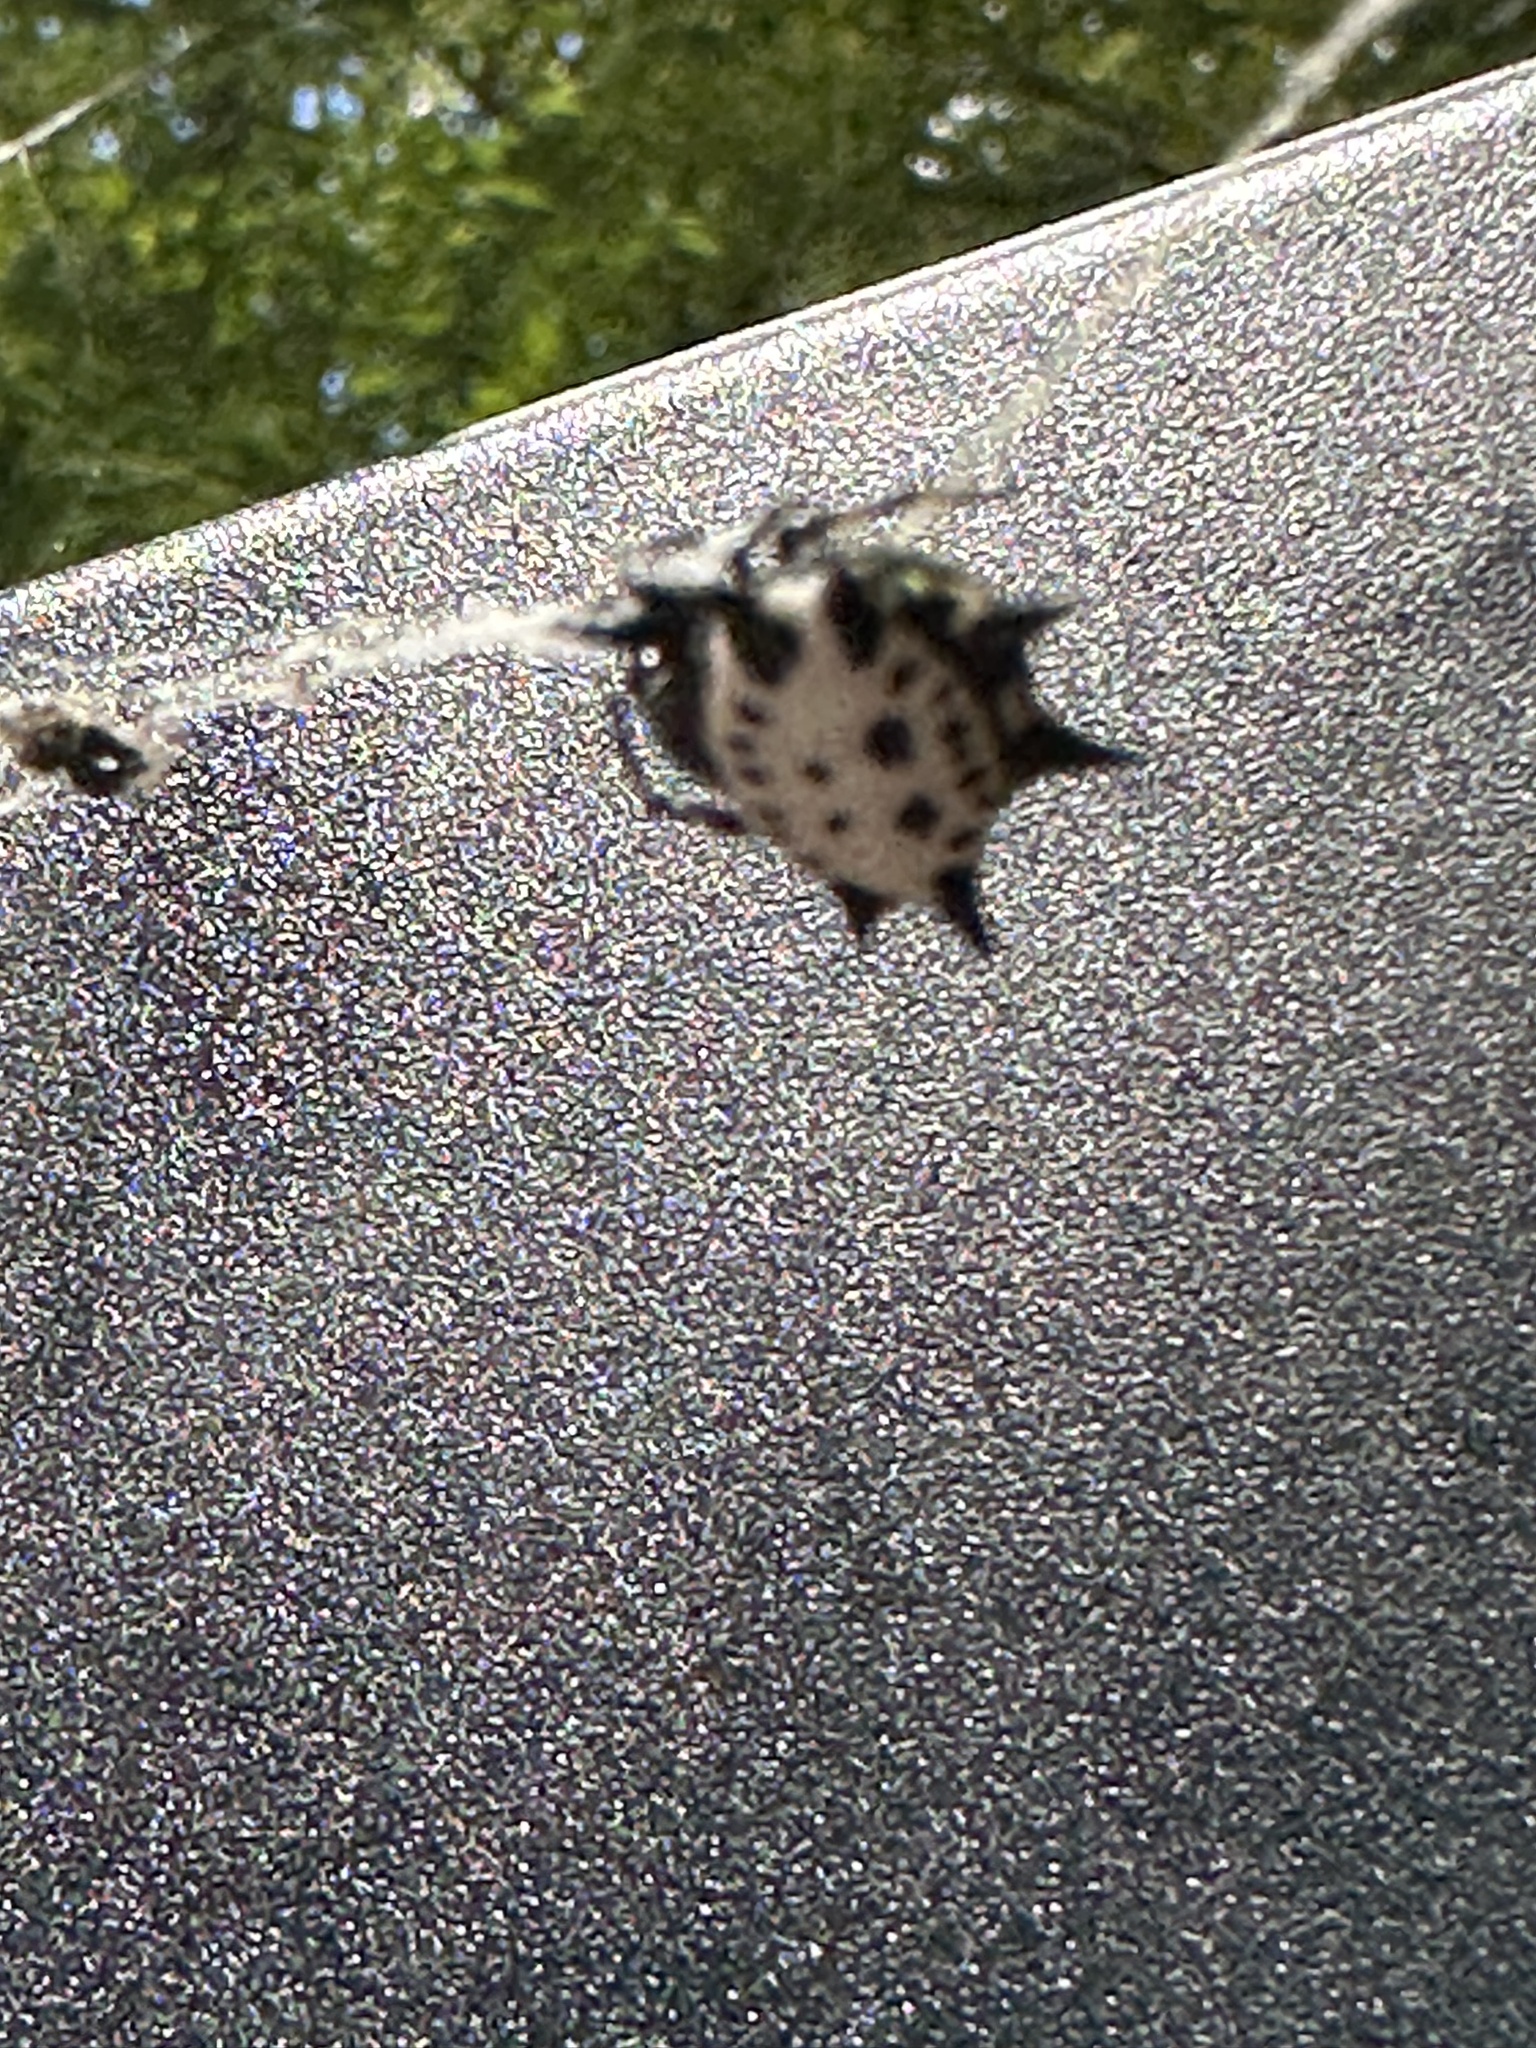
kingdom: Animalia
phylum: Arthropoda
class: Arachnida
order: Araneae
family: Araneidae
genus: Gasteracantha
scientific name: Gasteracantha cancriformis
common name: Orb weavers
